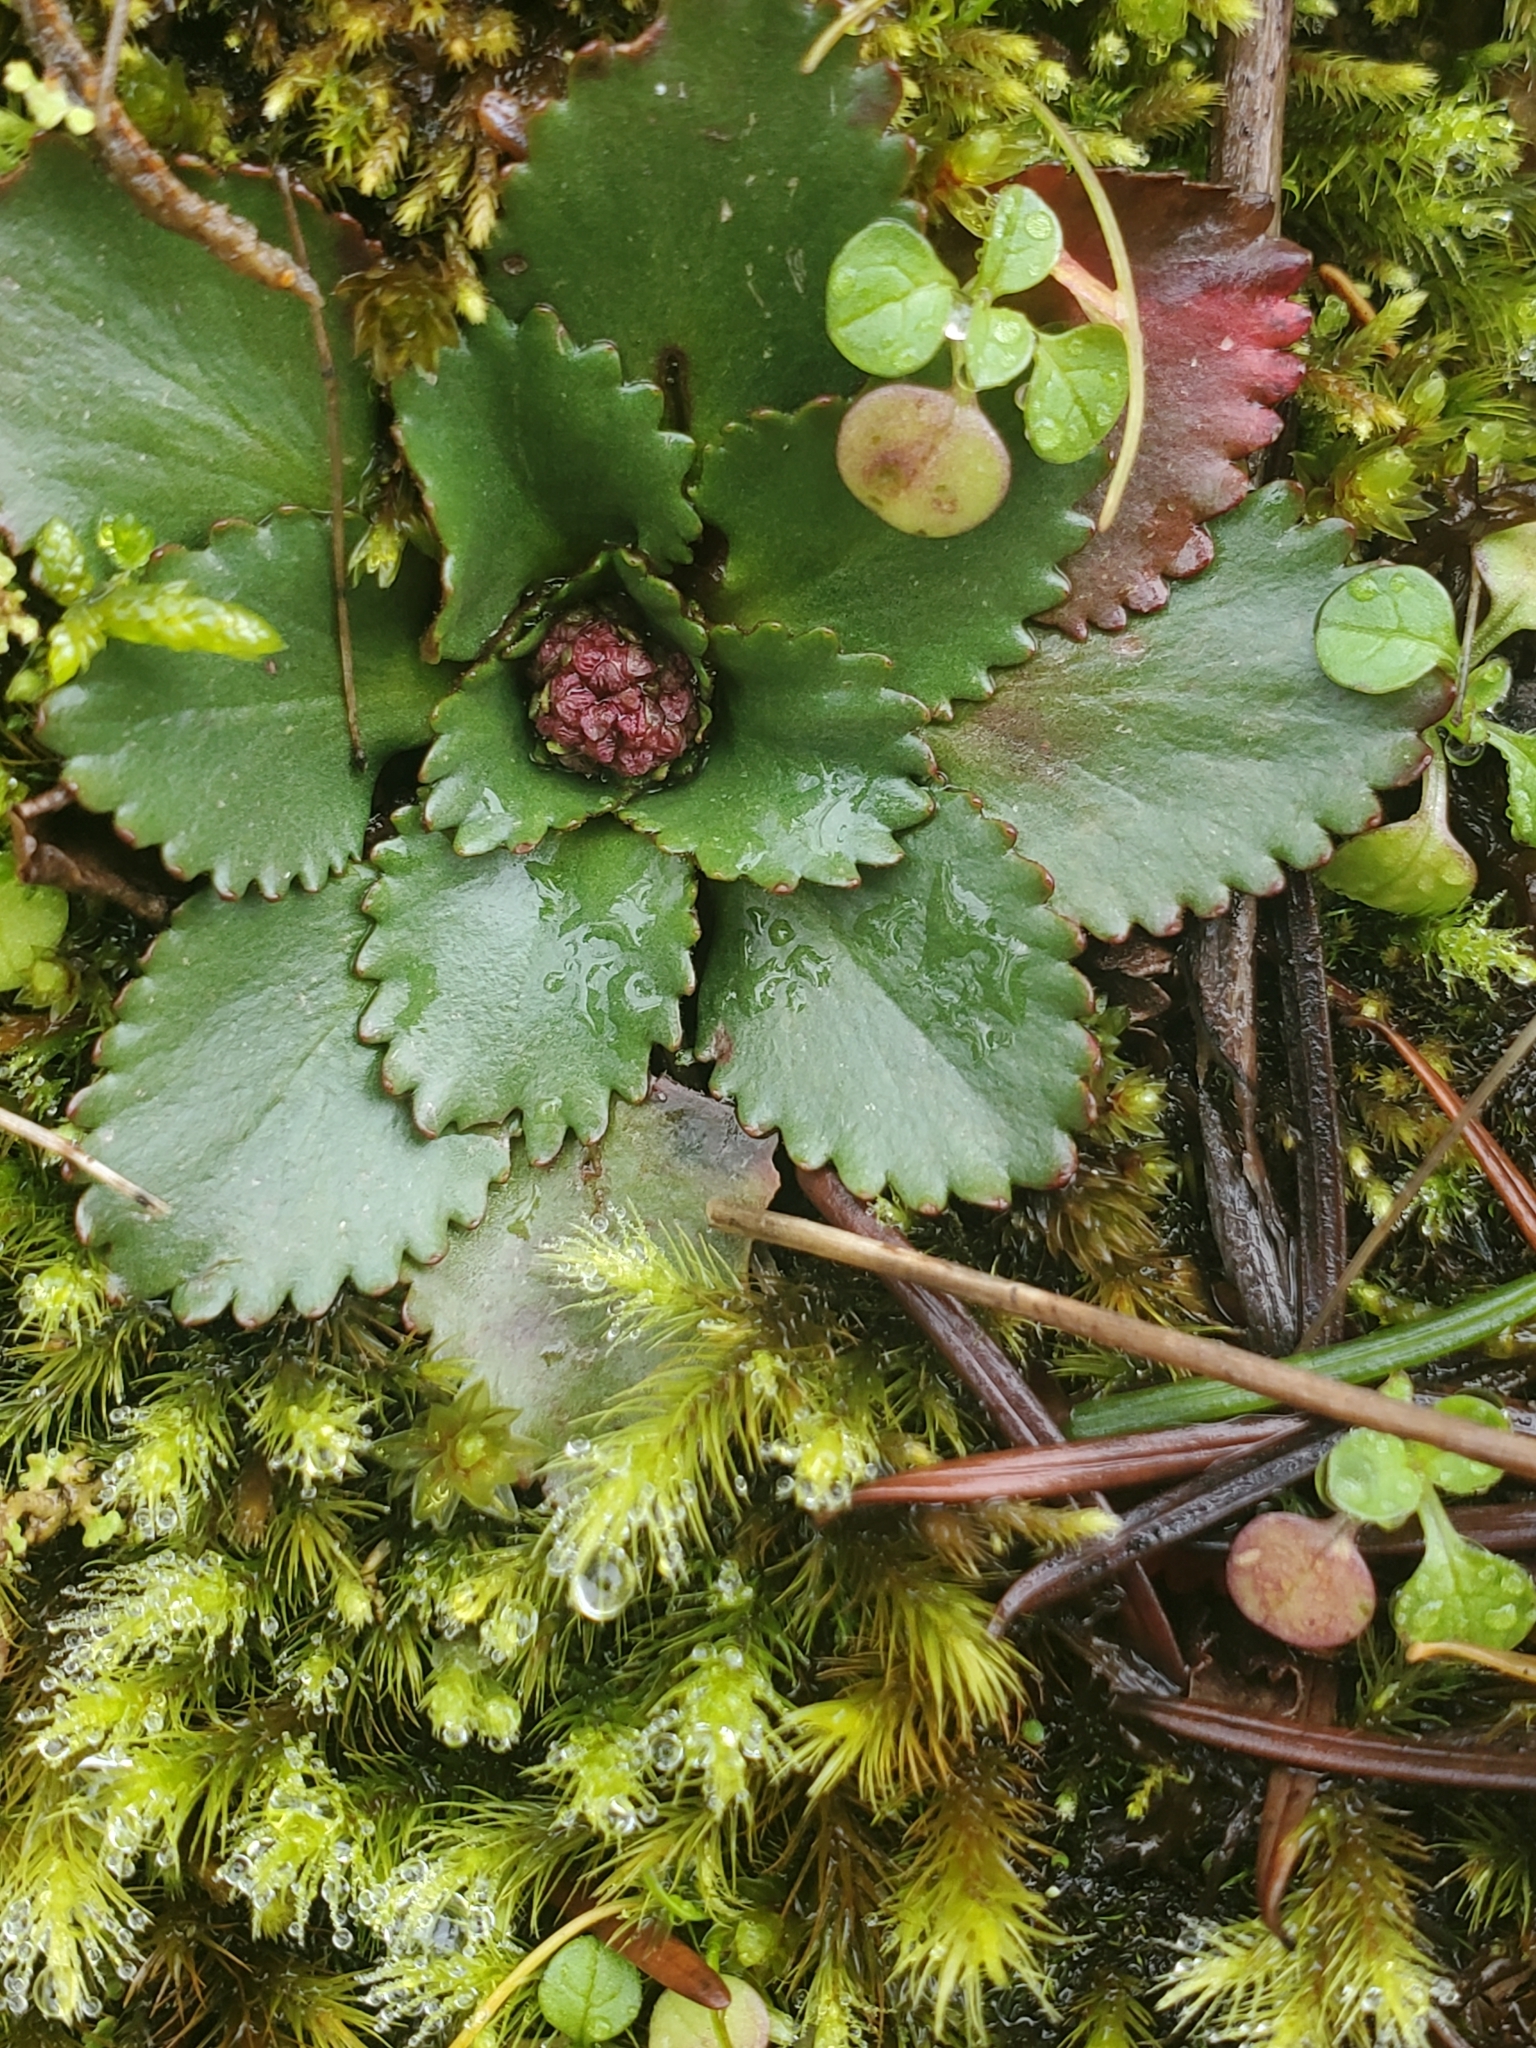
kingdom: Plantae
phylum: Tracheophyta
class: Magnoliopsida
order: Saxifragales
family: Saxifragaceae
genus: Micranthes
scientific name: Micranthes rufidula
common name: Rustyhair saxifrage
